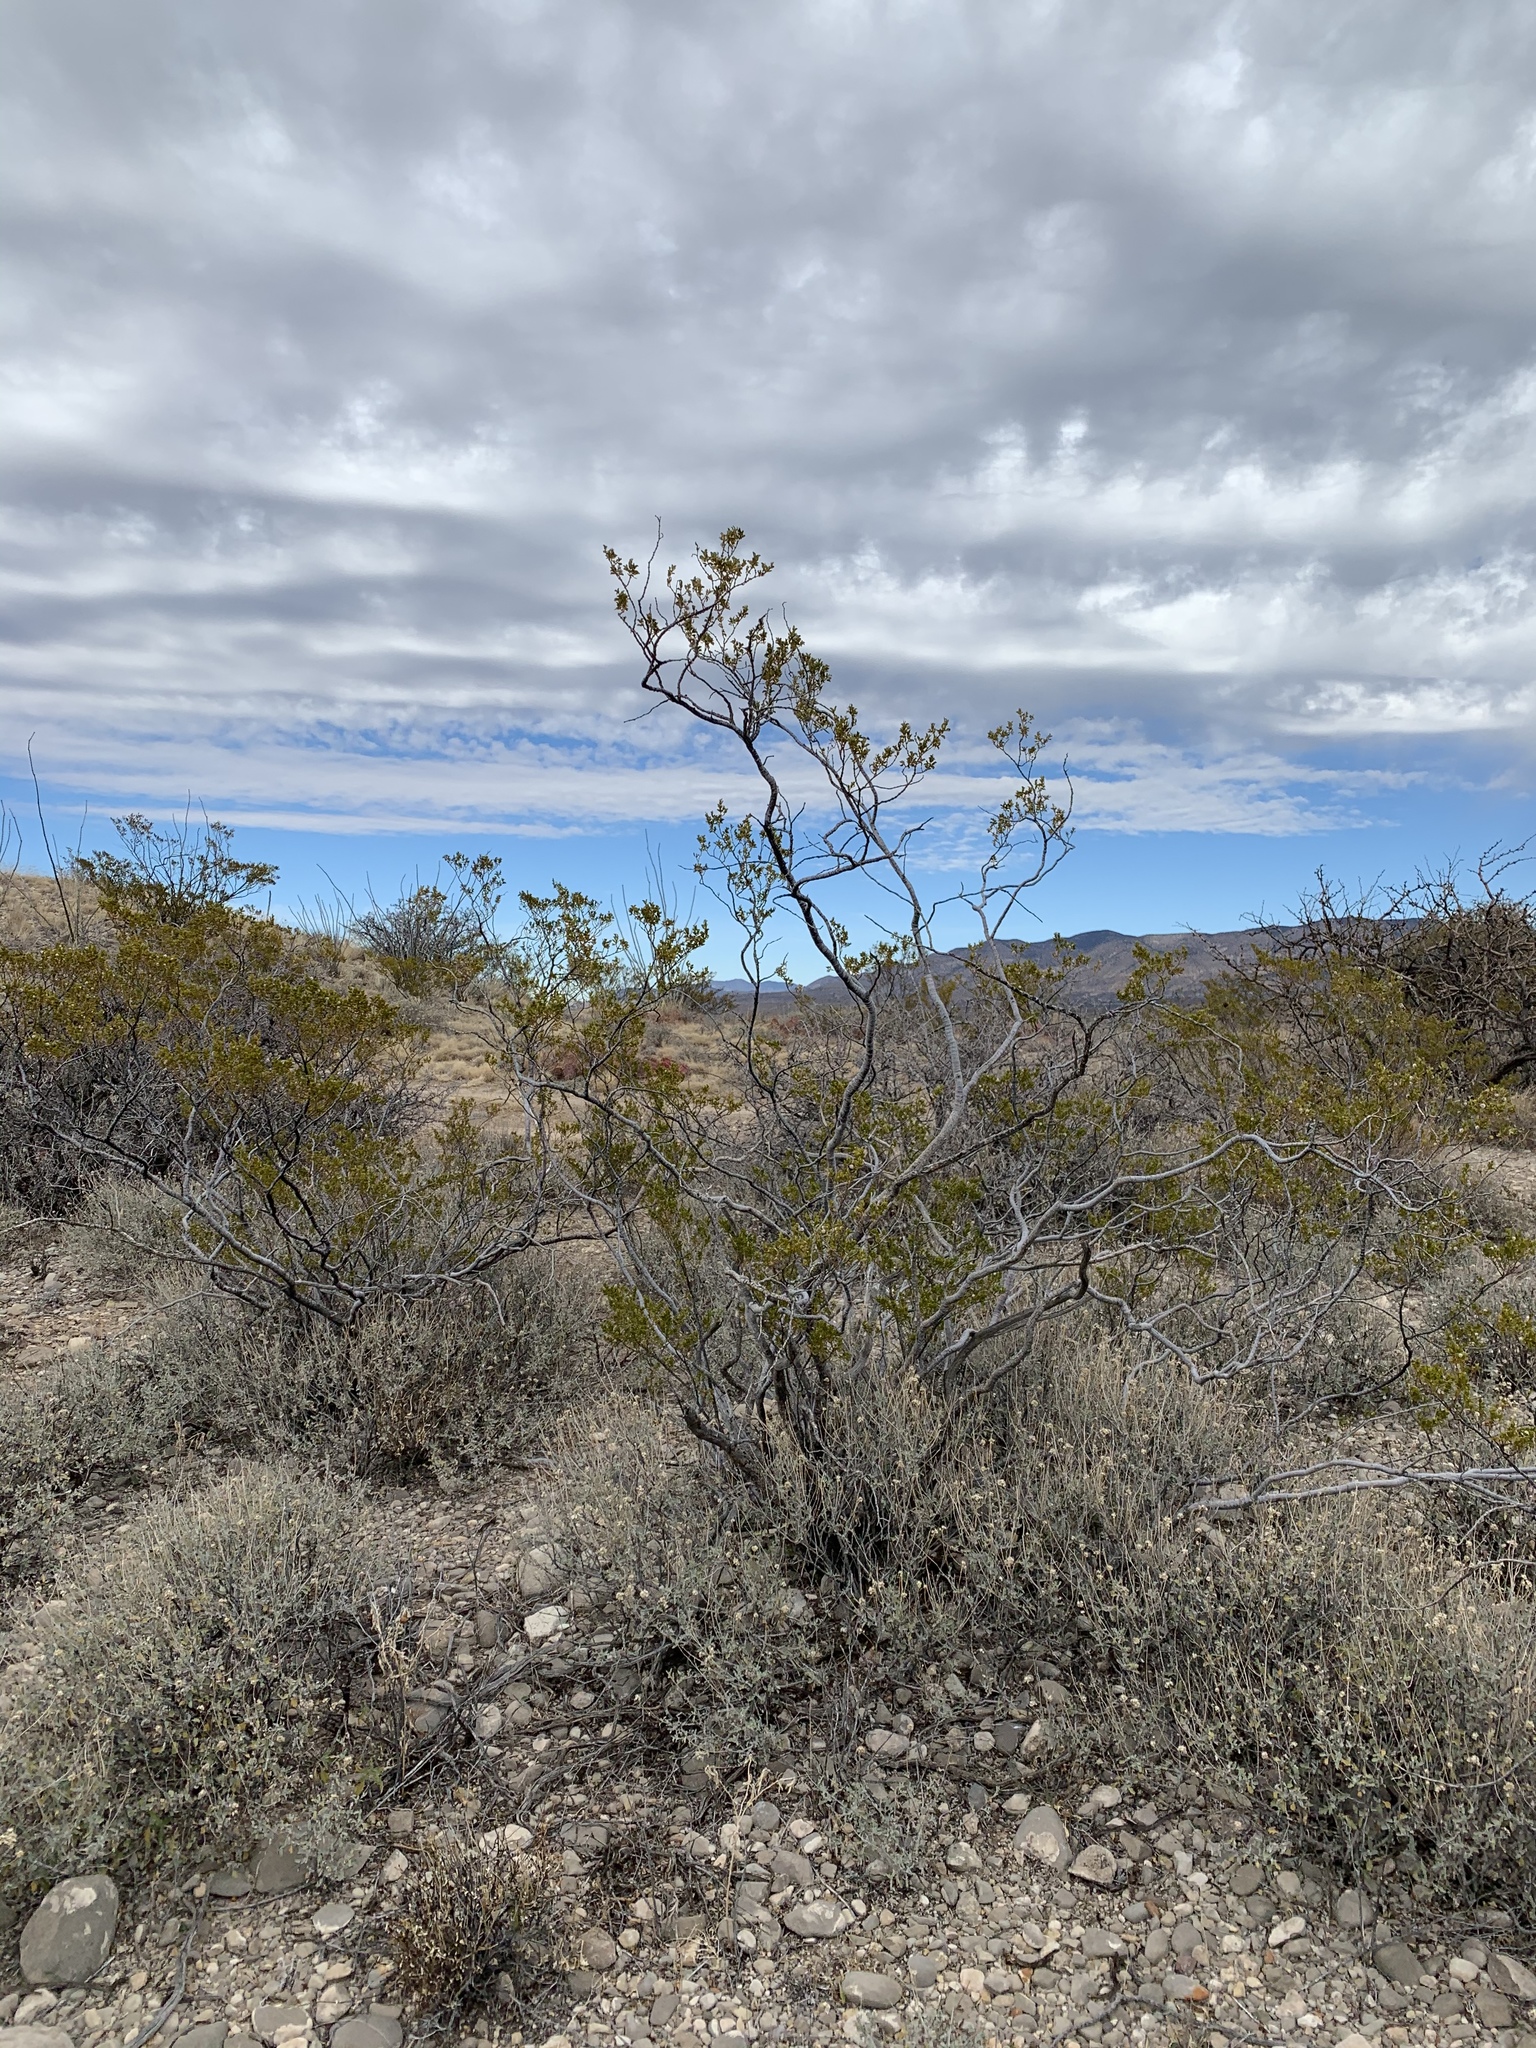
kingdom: Plantae
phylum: Tracheophyta
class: Magnoliopsida
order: Zygophyllales
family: Zygophyllaceae
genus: Larrea
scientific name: Larrea tridentata
